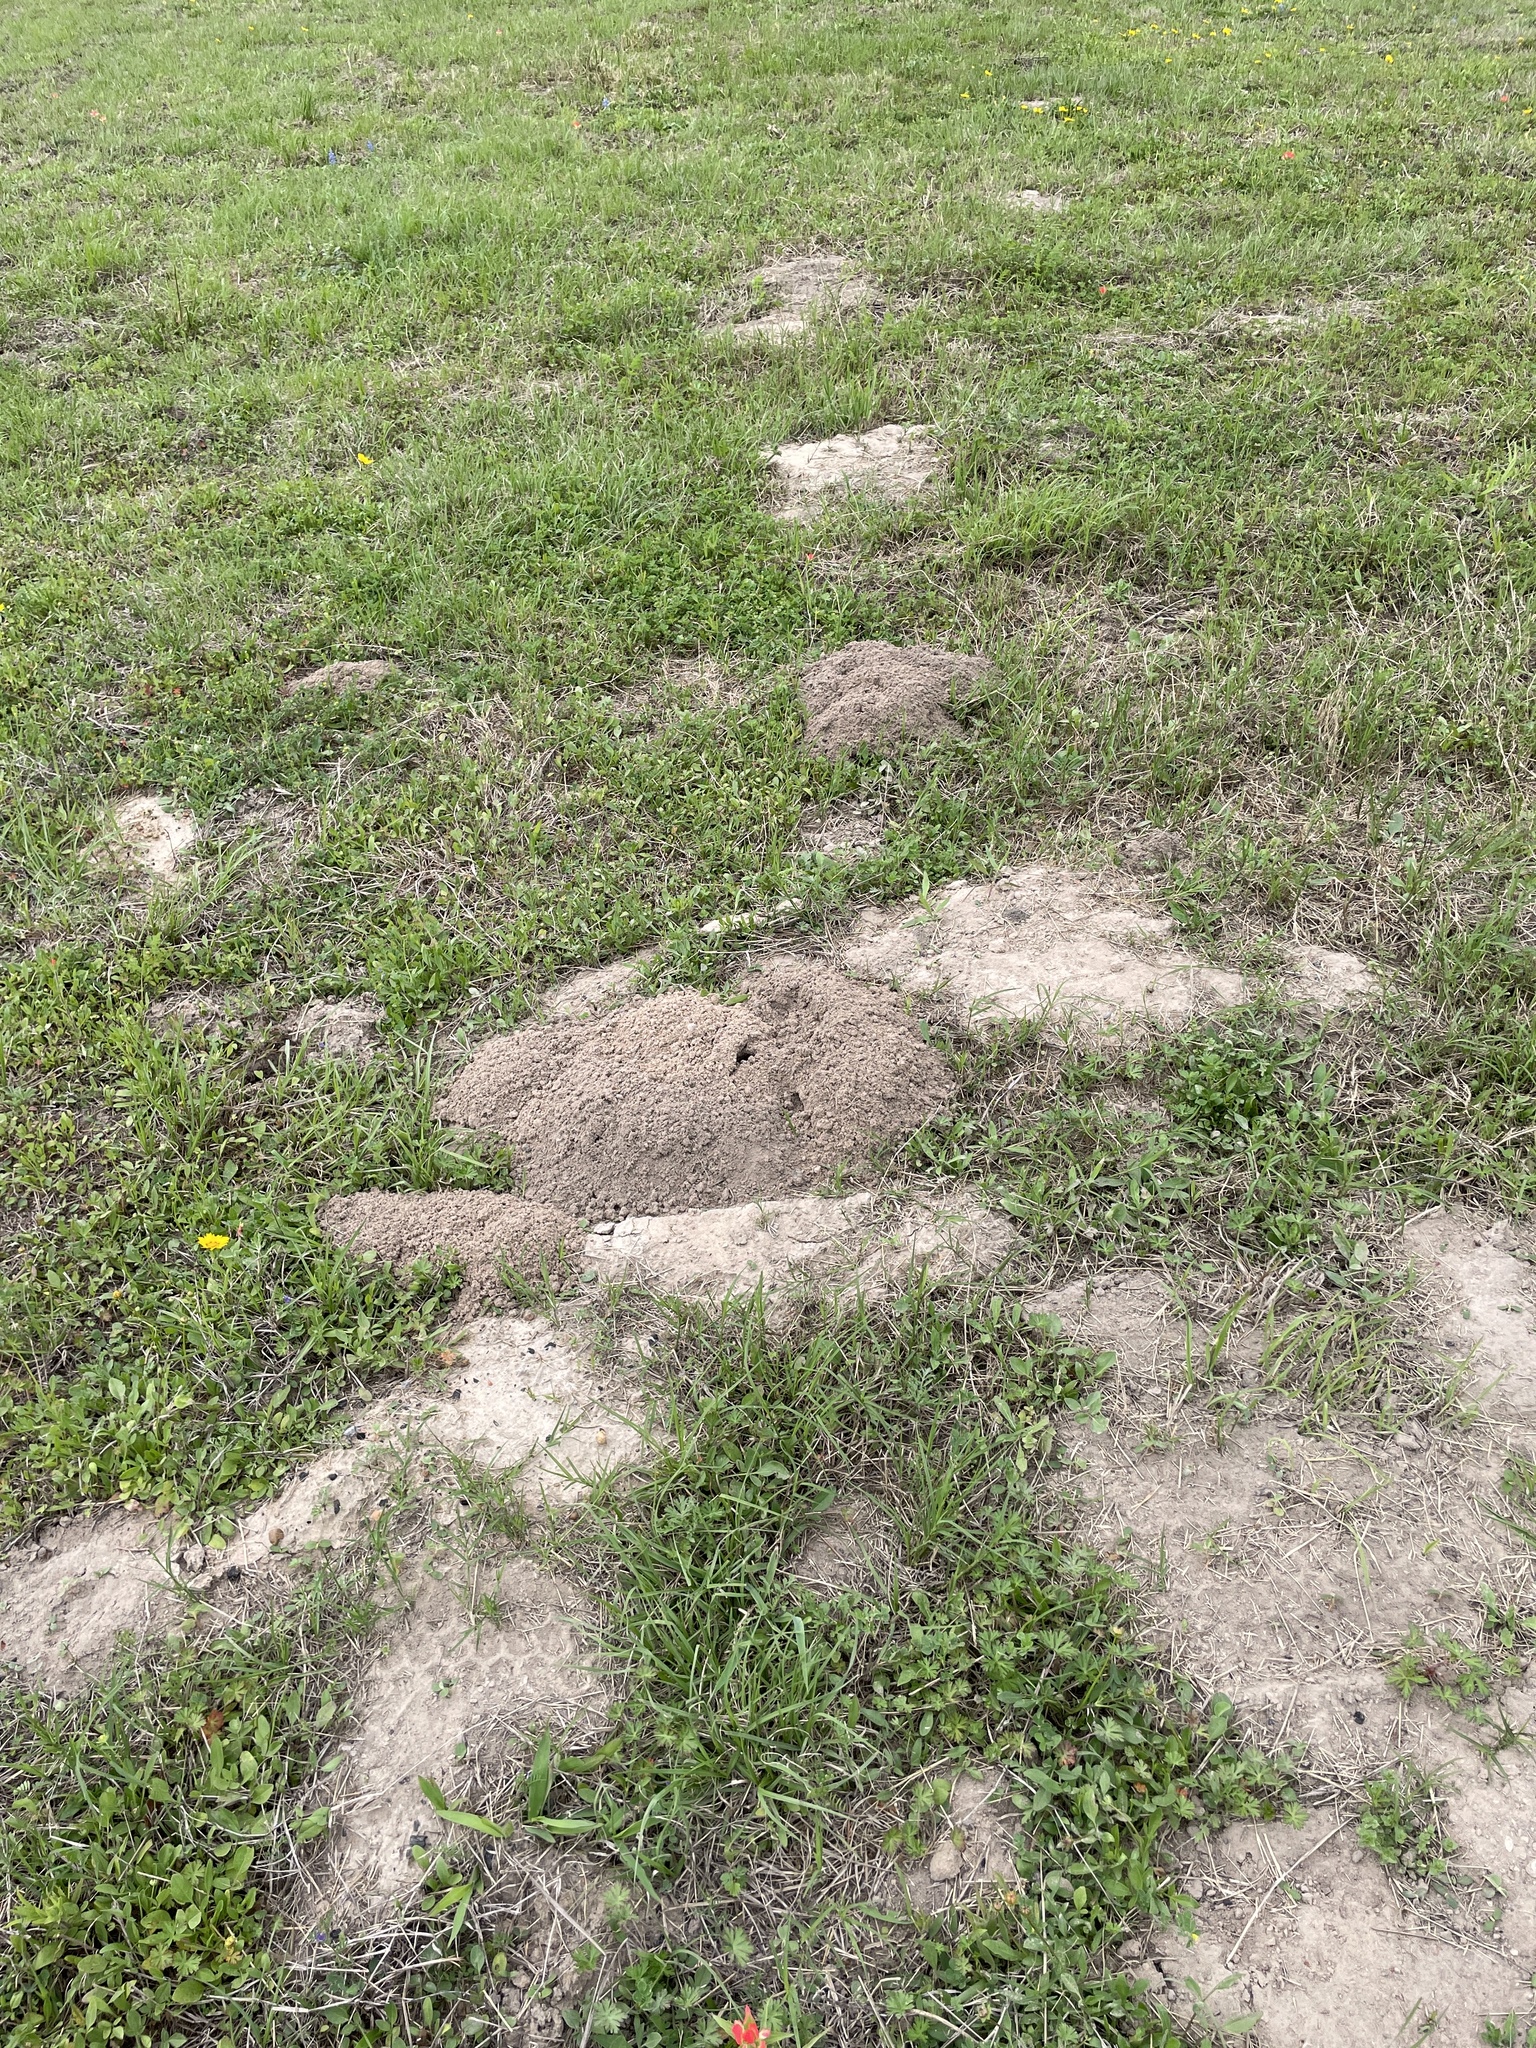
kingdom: Animalia
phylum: Chordata
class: Mammalia
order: Rodentia
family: Geomyidae
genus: Geomys
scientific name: Geomys attwateri
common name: Attwater's pocket gopher
